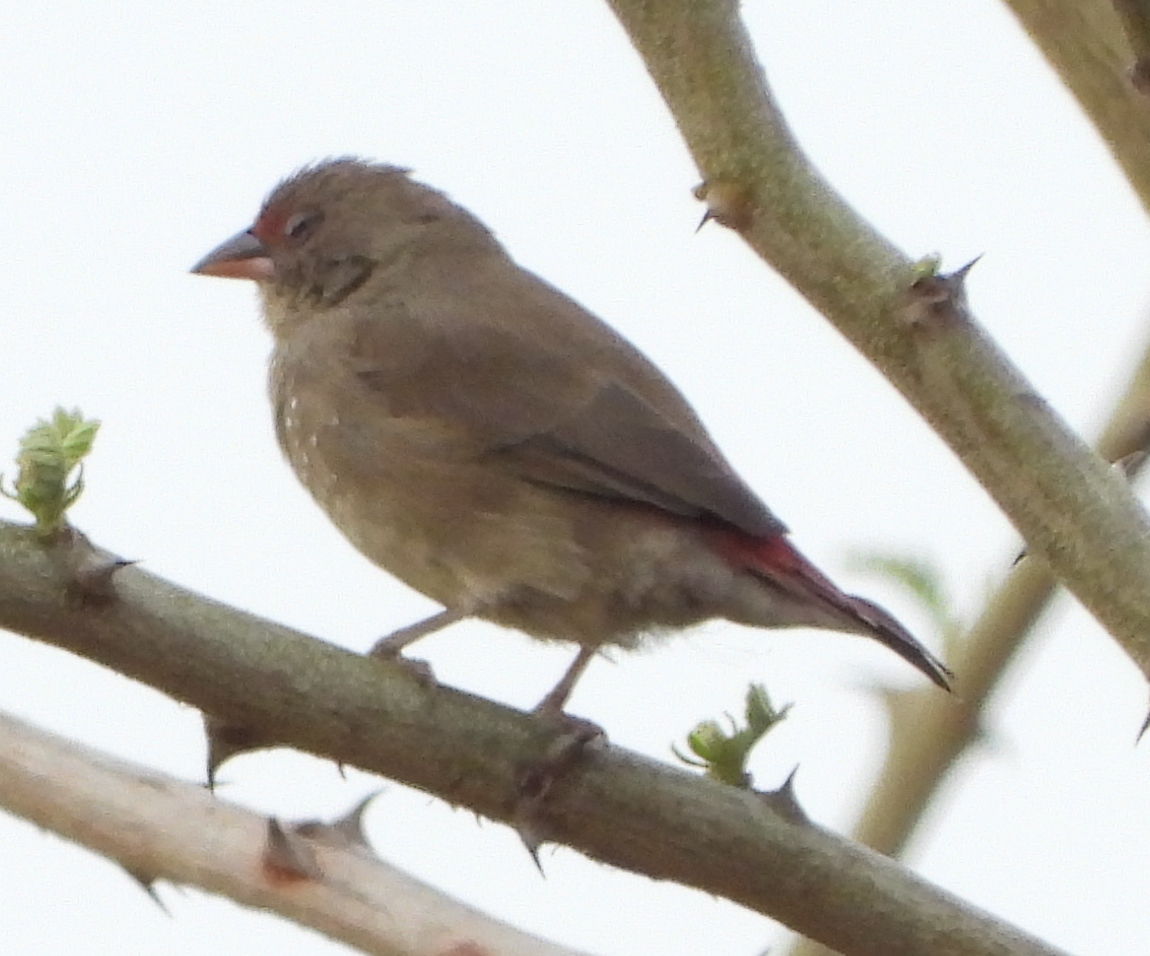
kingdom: Animalia
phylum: Chordata
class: Aves
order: Passeriformes
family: Estrildidae
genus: Lagonosticta
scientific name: Lagonosticta senegala
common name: Red-billed firefinch
